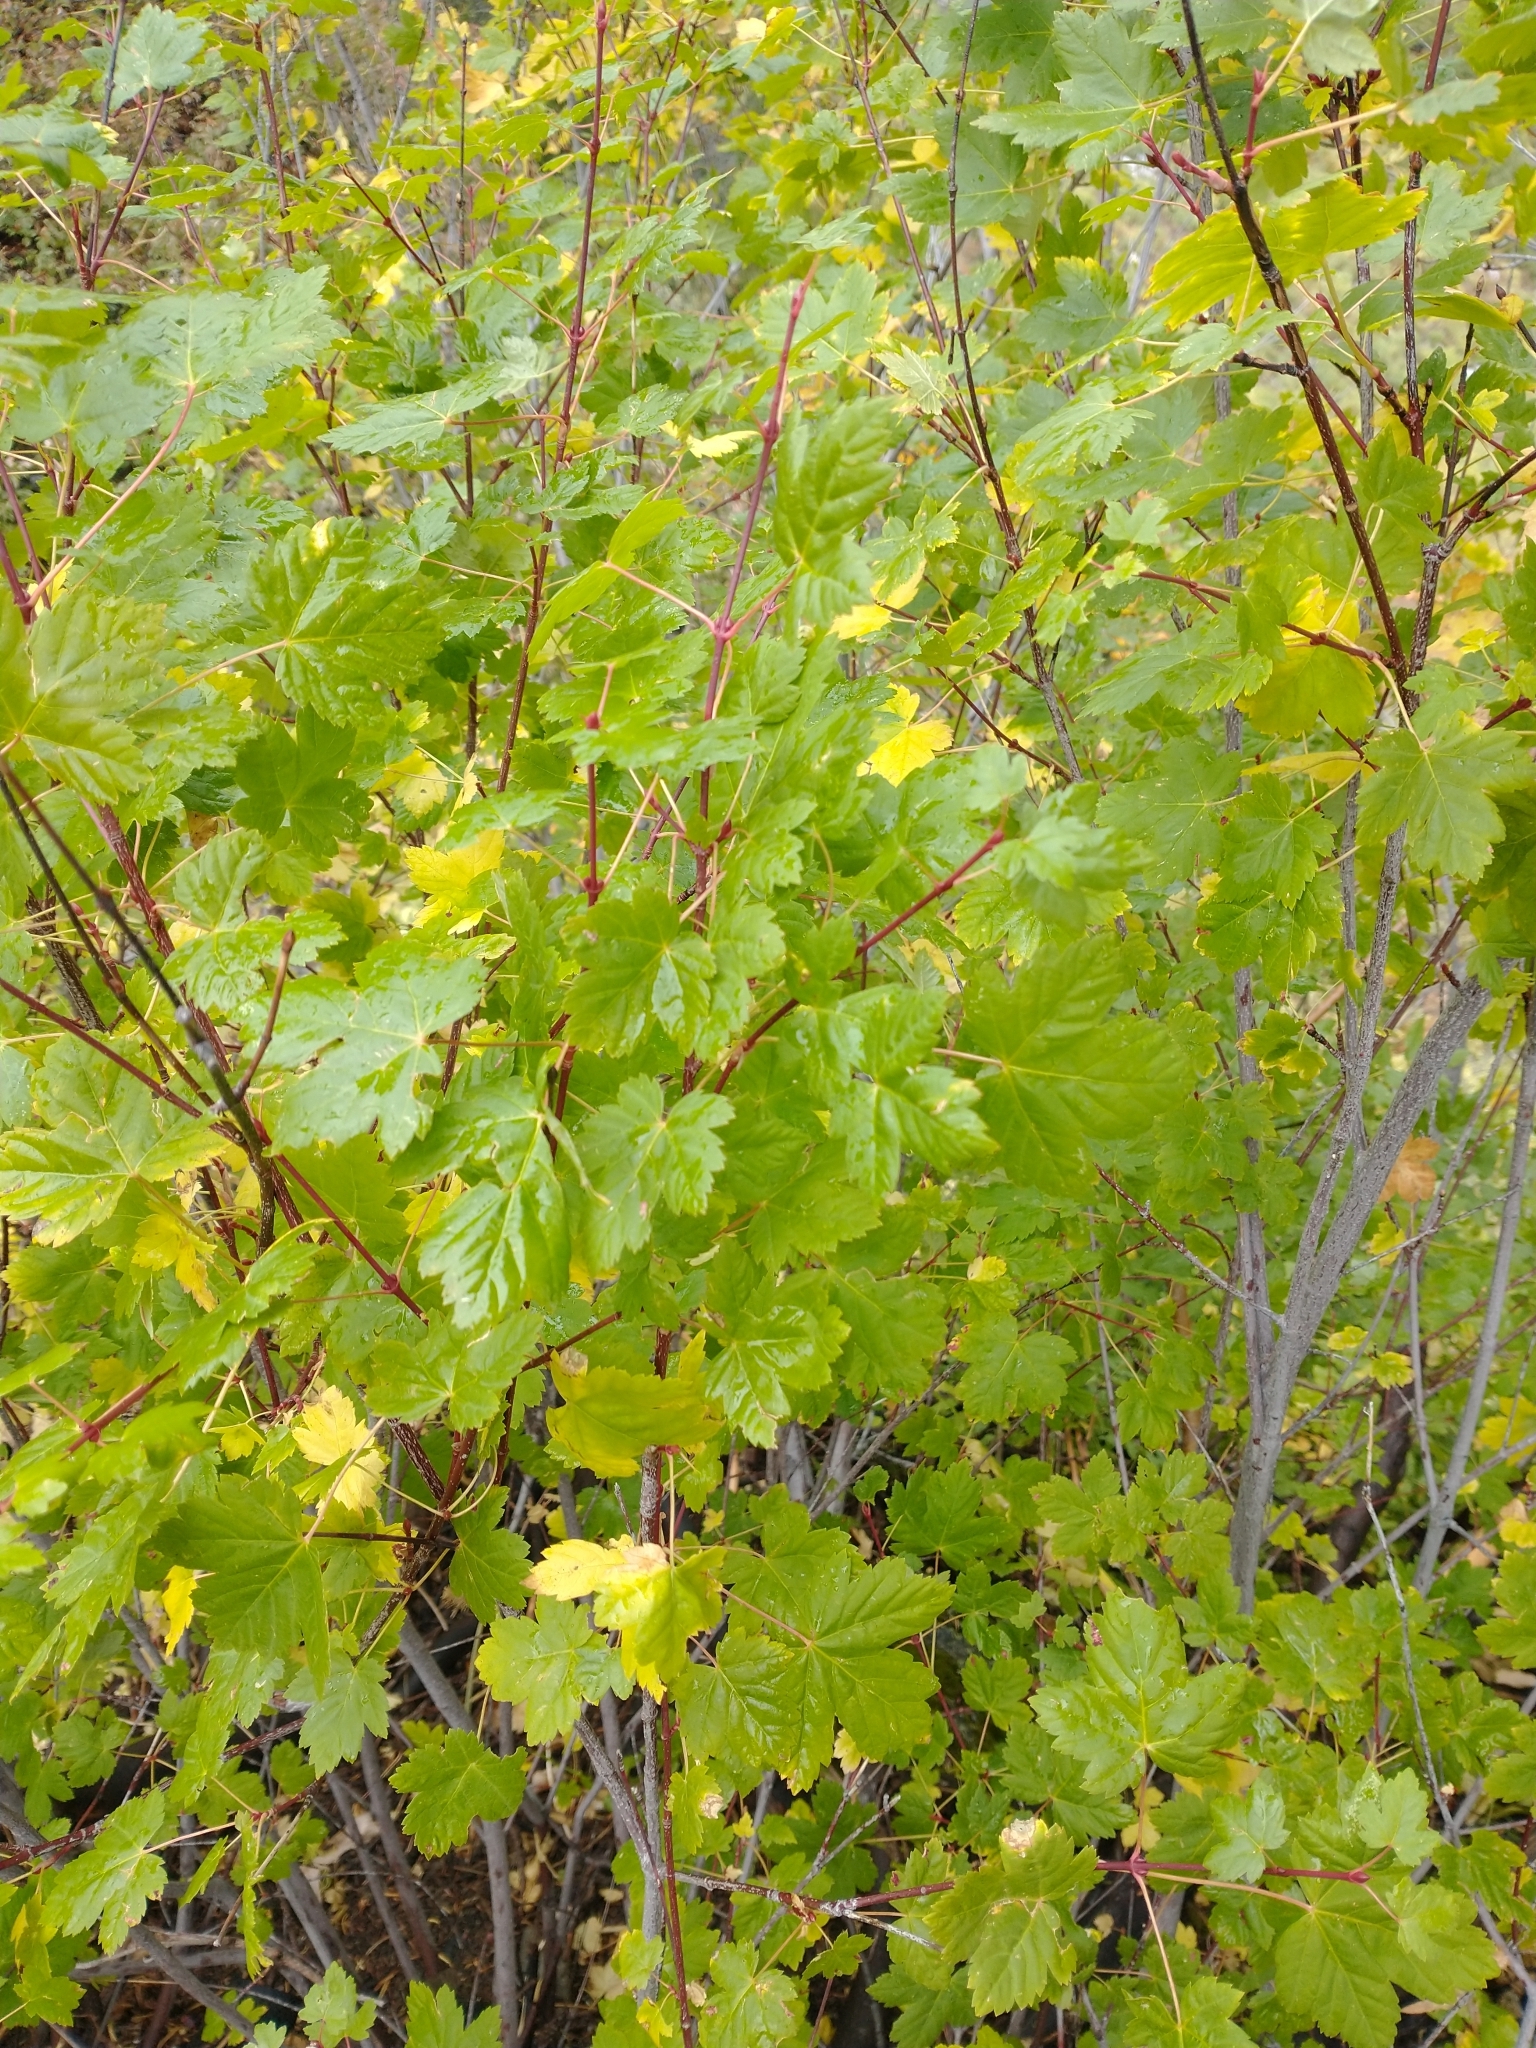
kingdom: Plantae
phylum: Tracheophyta
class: Magnoliopsida
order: Sapindales
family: Sapindaceae
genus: Acer
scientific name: Acer glabrum
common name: Rocky mountain maple
